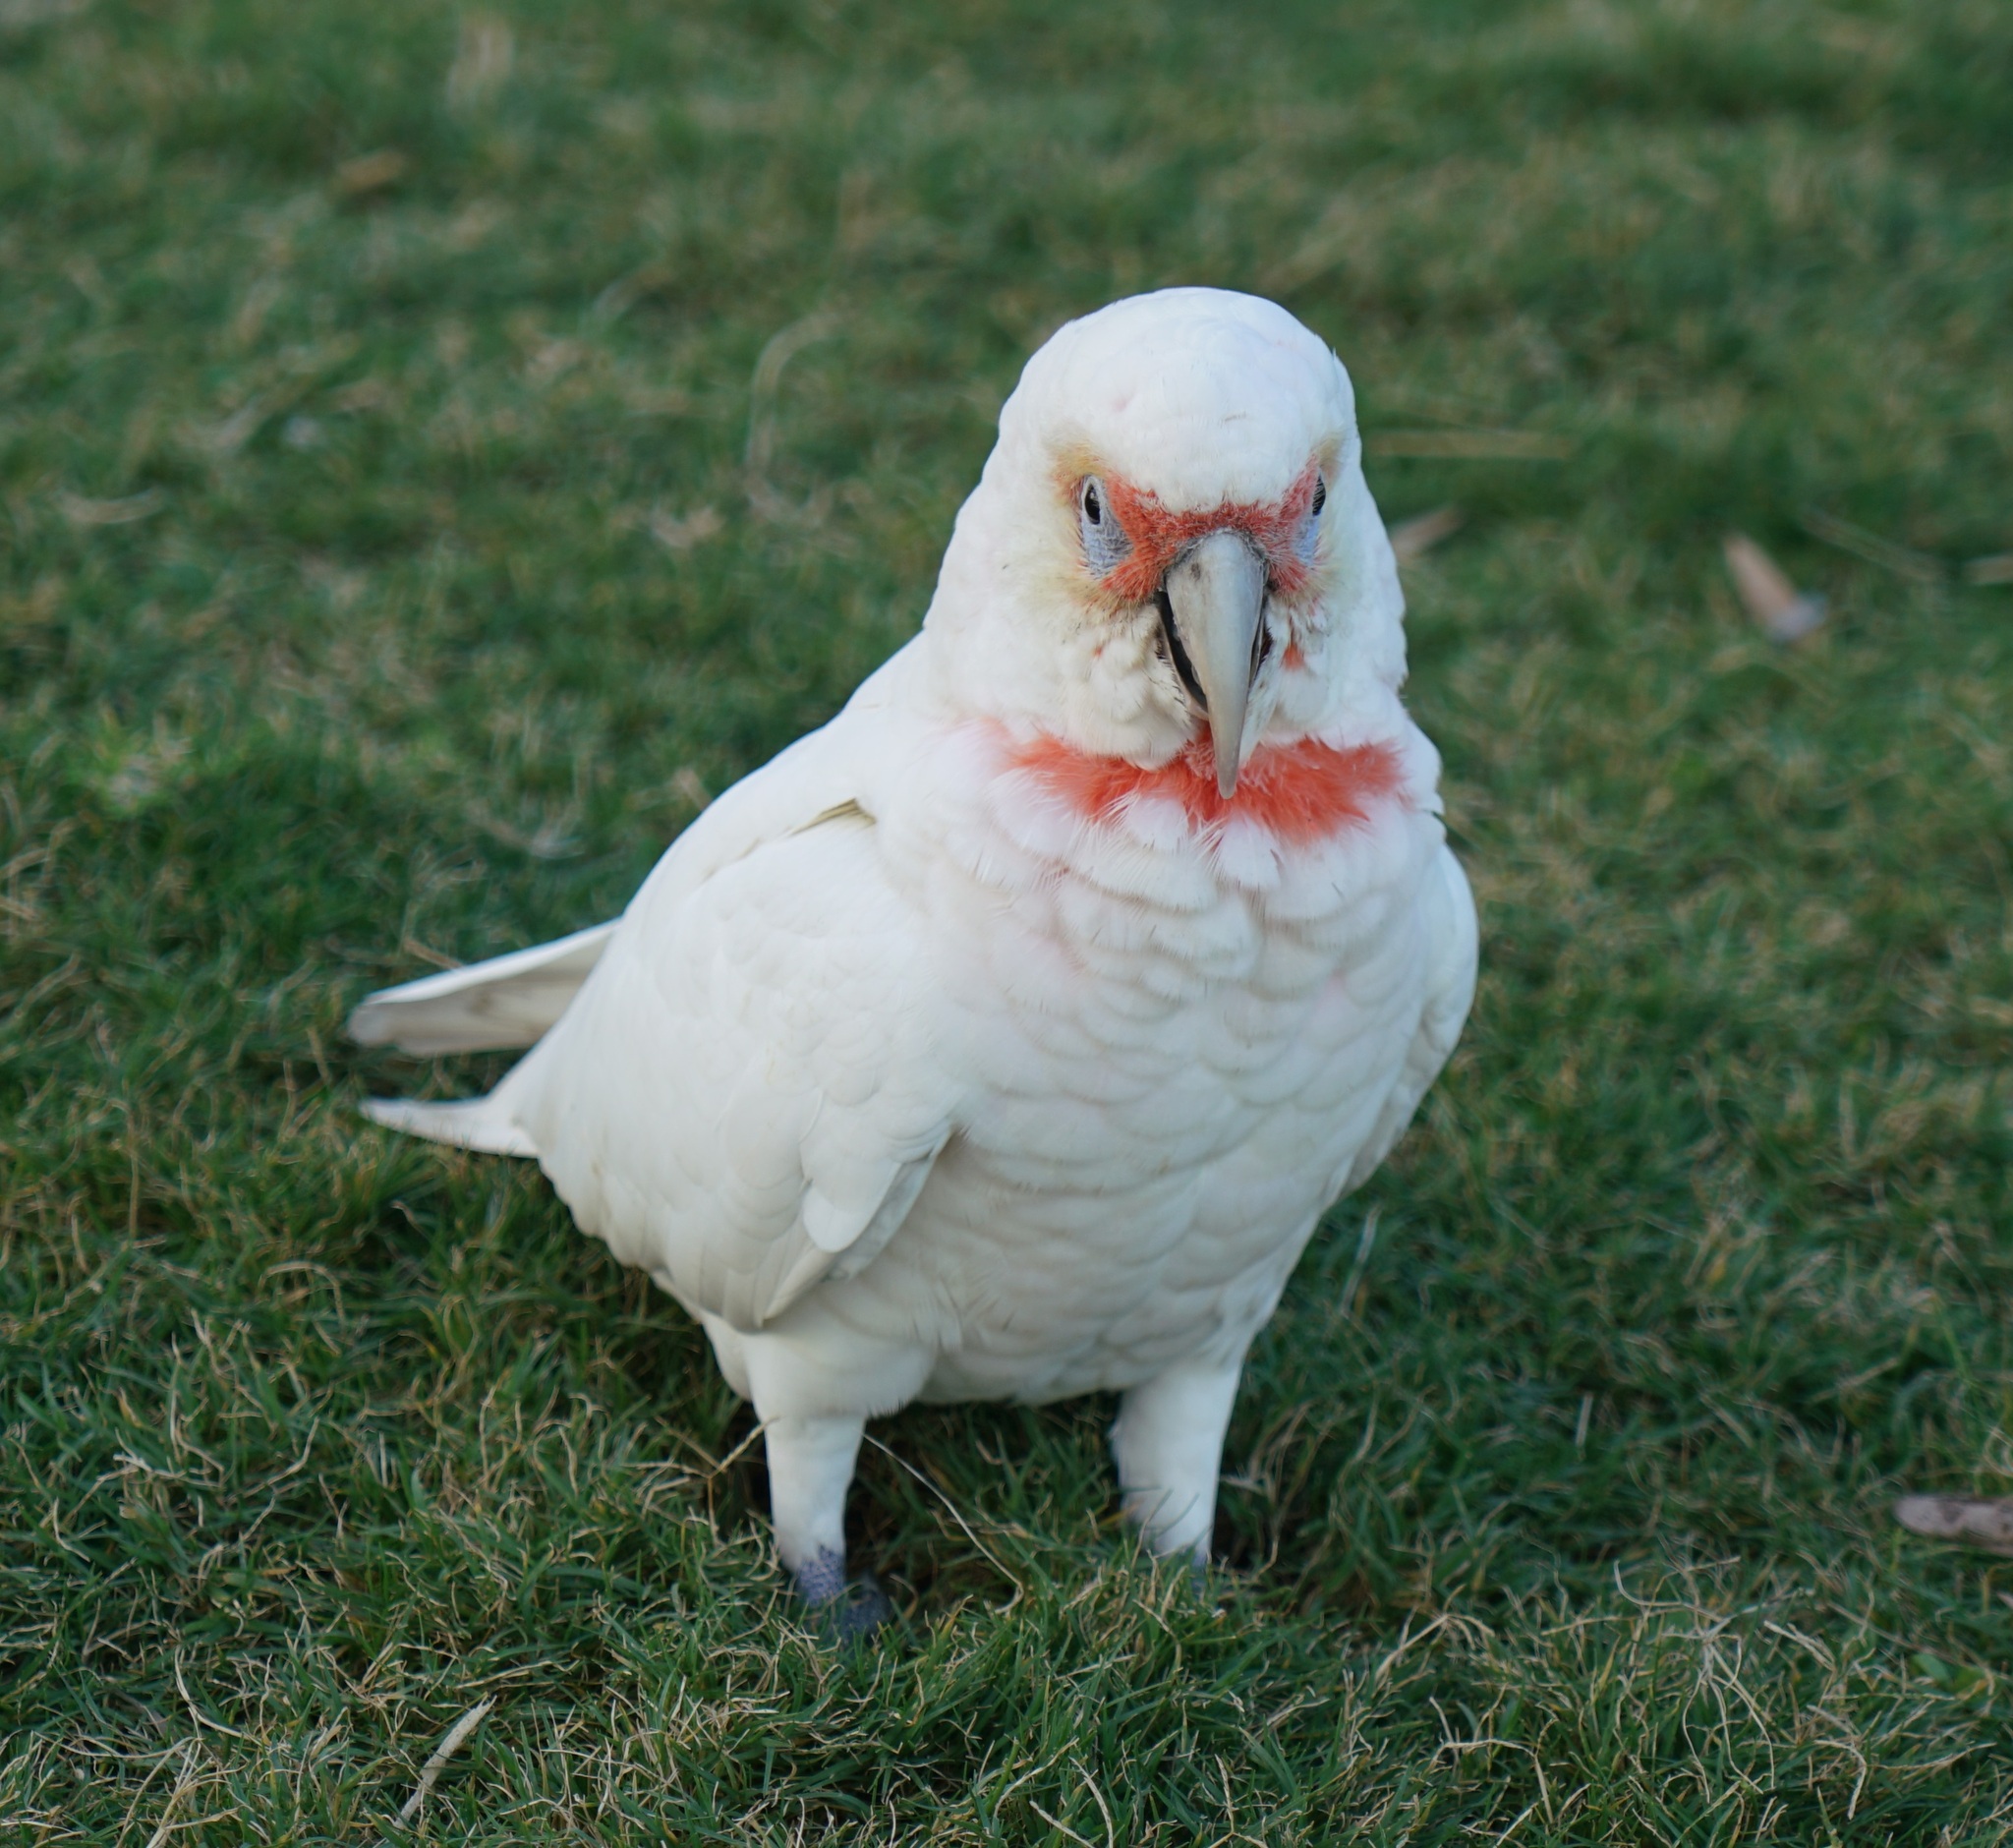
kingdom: Animalia
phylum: Chordata
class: Aves
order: Psittaciformes
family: Psittacidae
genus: Cacatua
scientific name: Cacatua tenuirostris
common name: Long-billed corella
